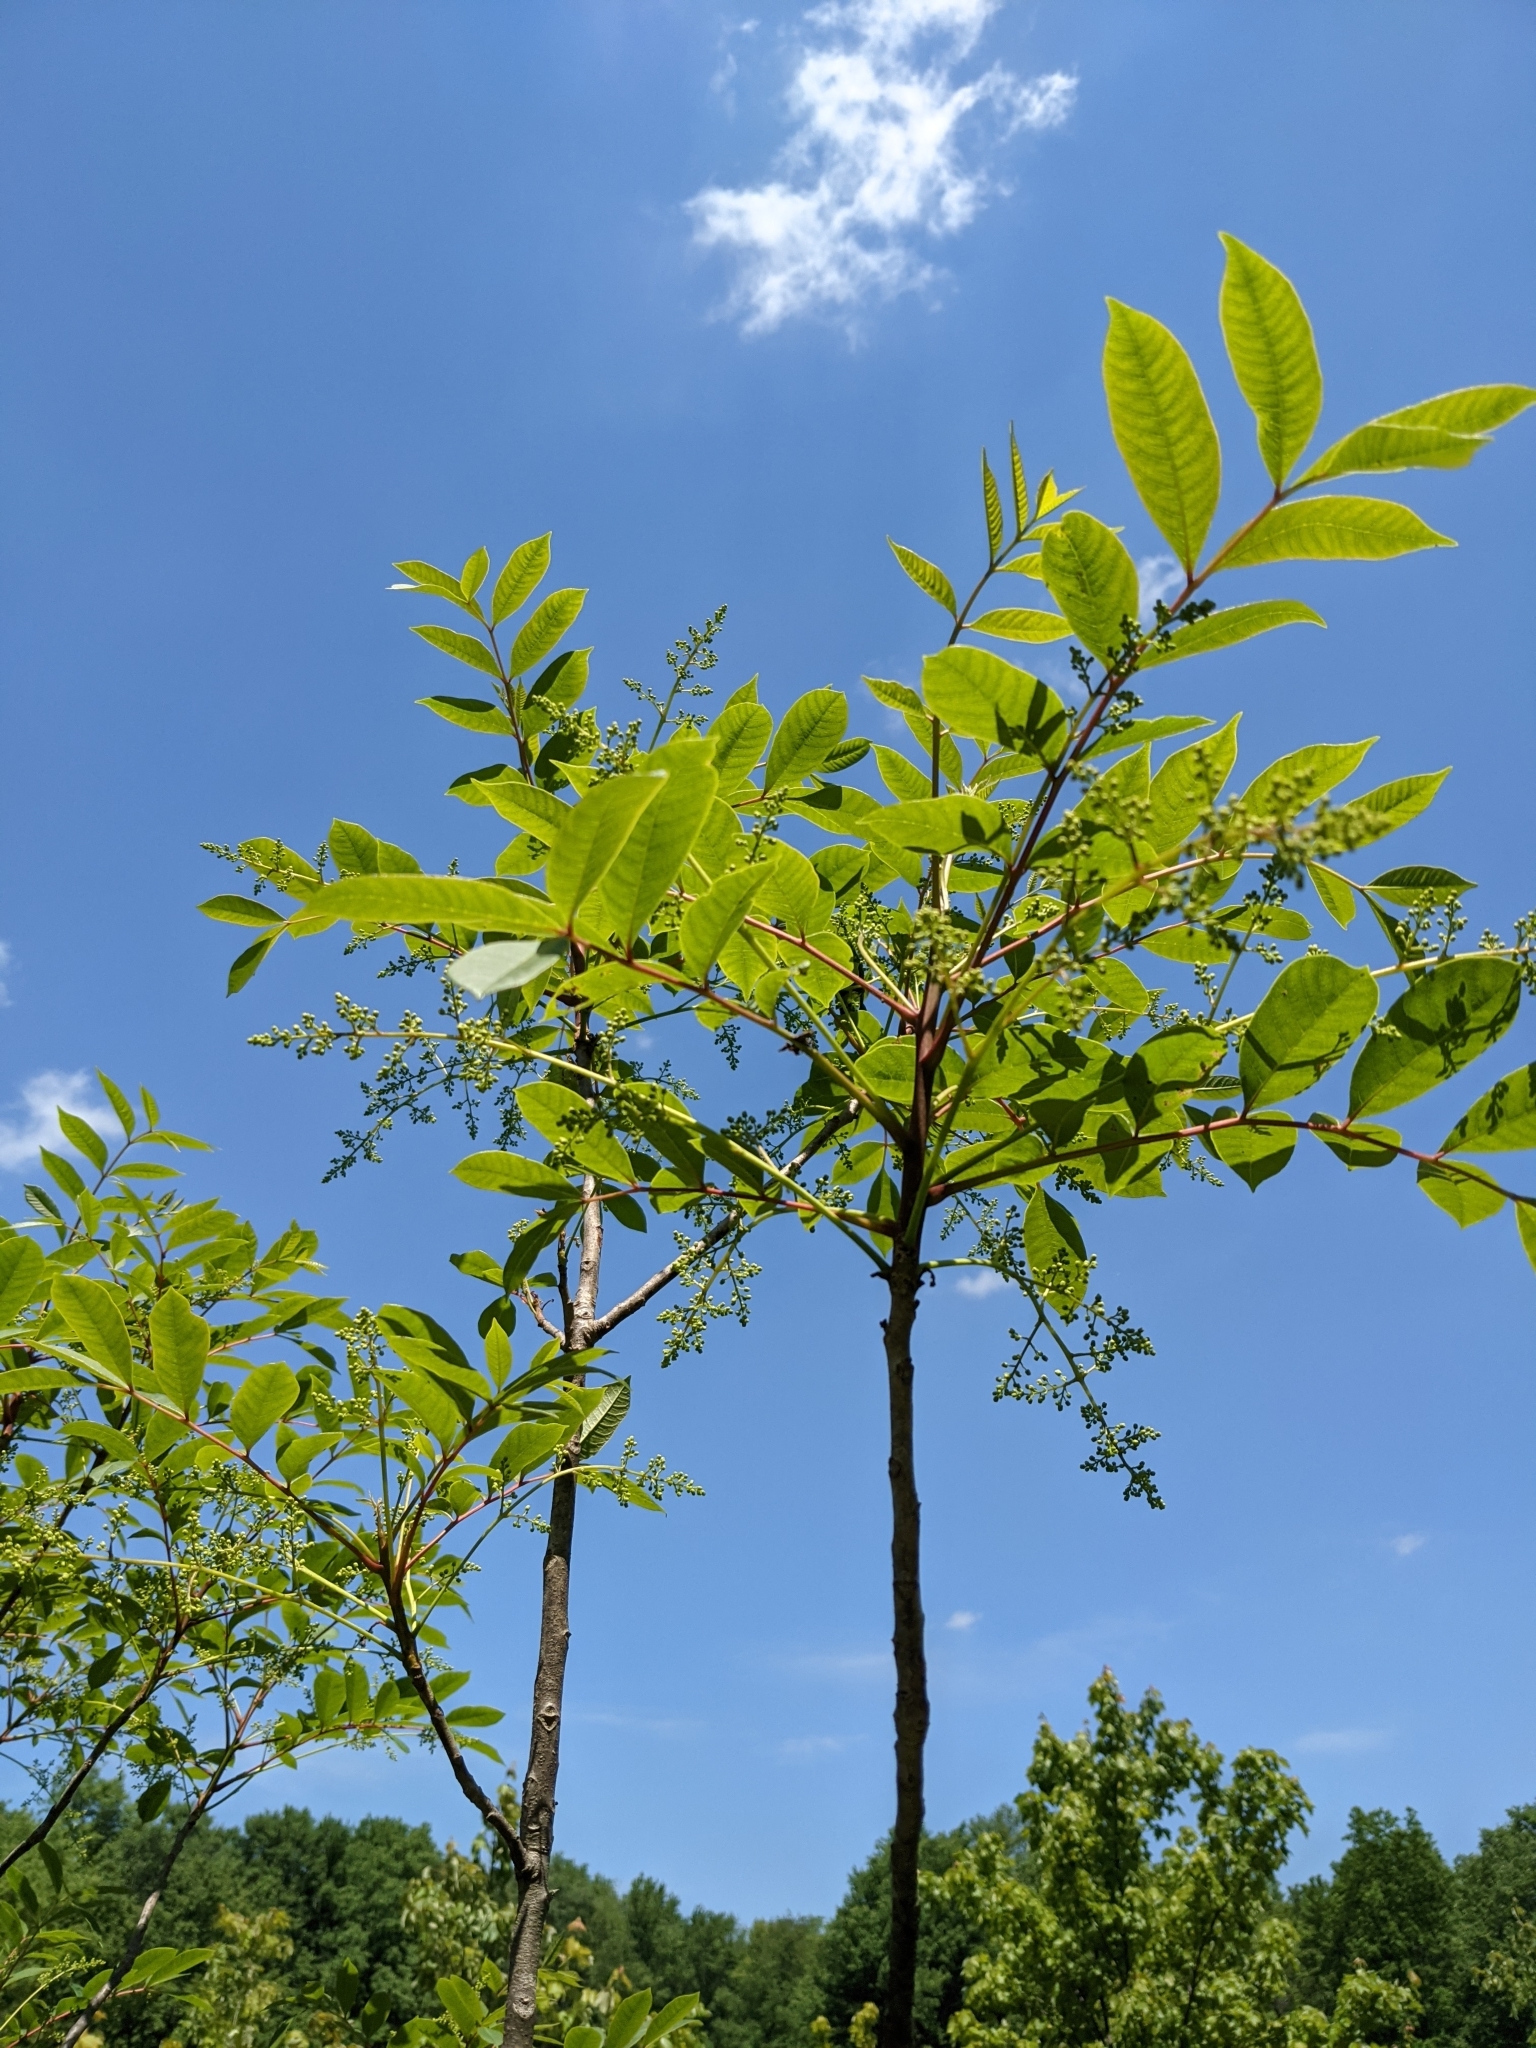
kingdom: Plantae
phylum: Tracheophyta
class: Magnoliopsida
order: Sapindales
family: Anacardiaceae
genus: Toxicodendron
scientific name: Toxicodendron vernix
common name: Poison sumac
